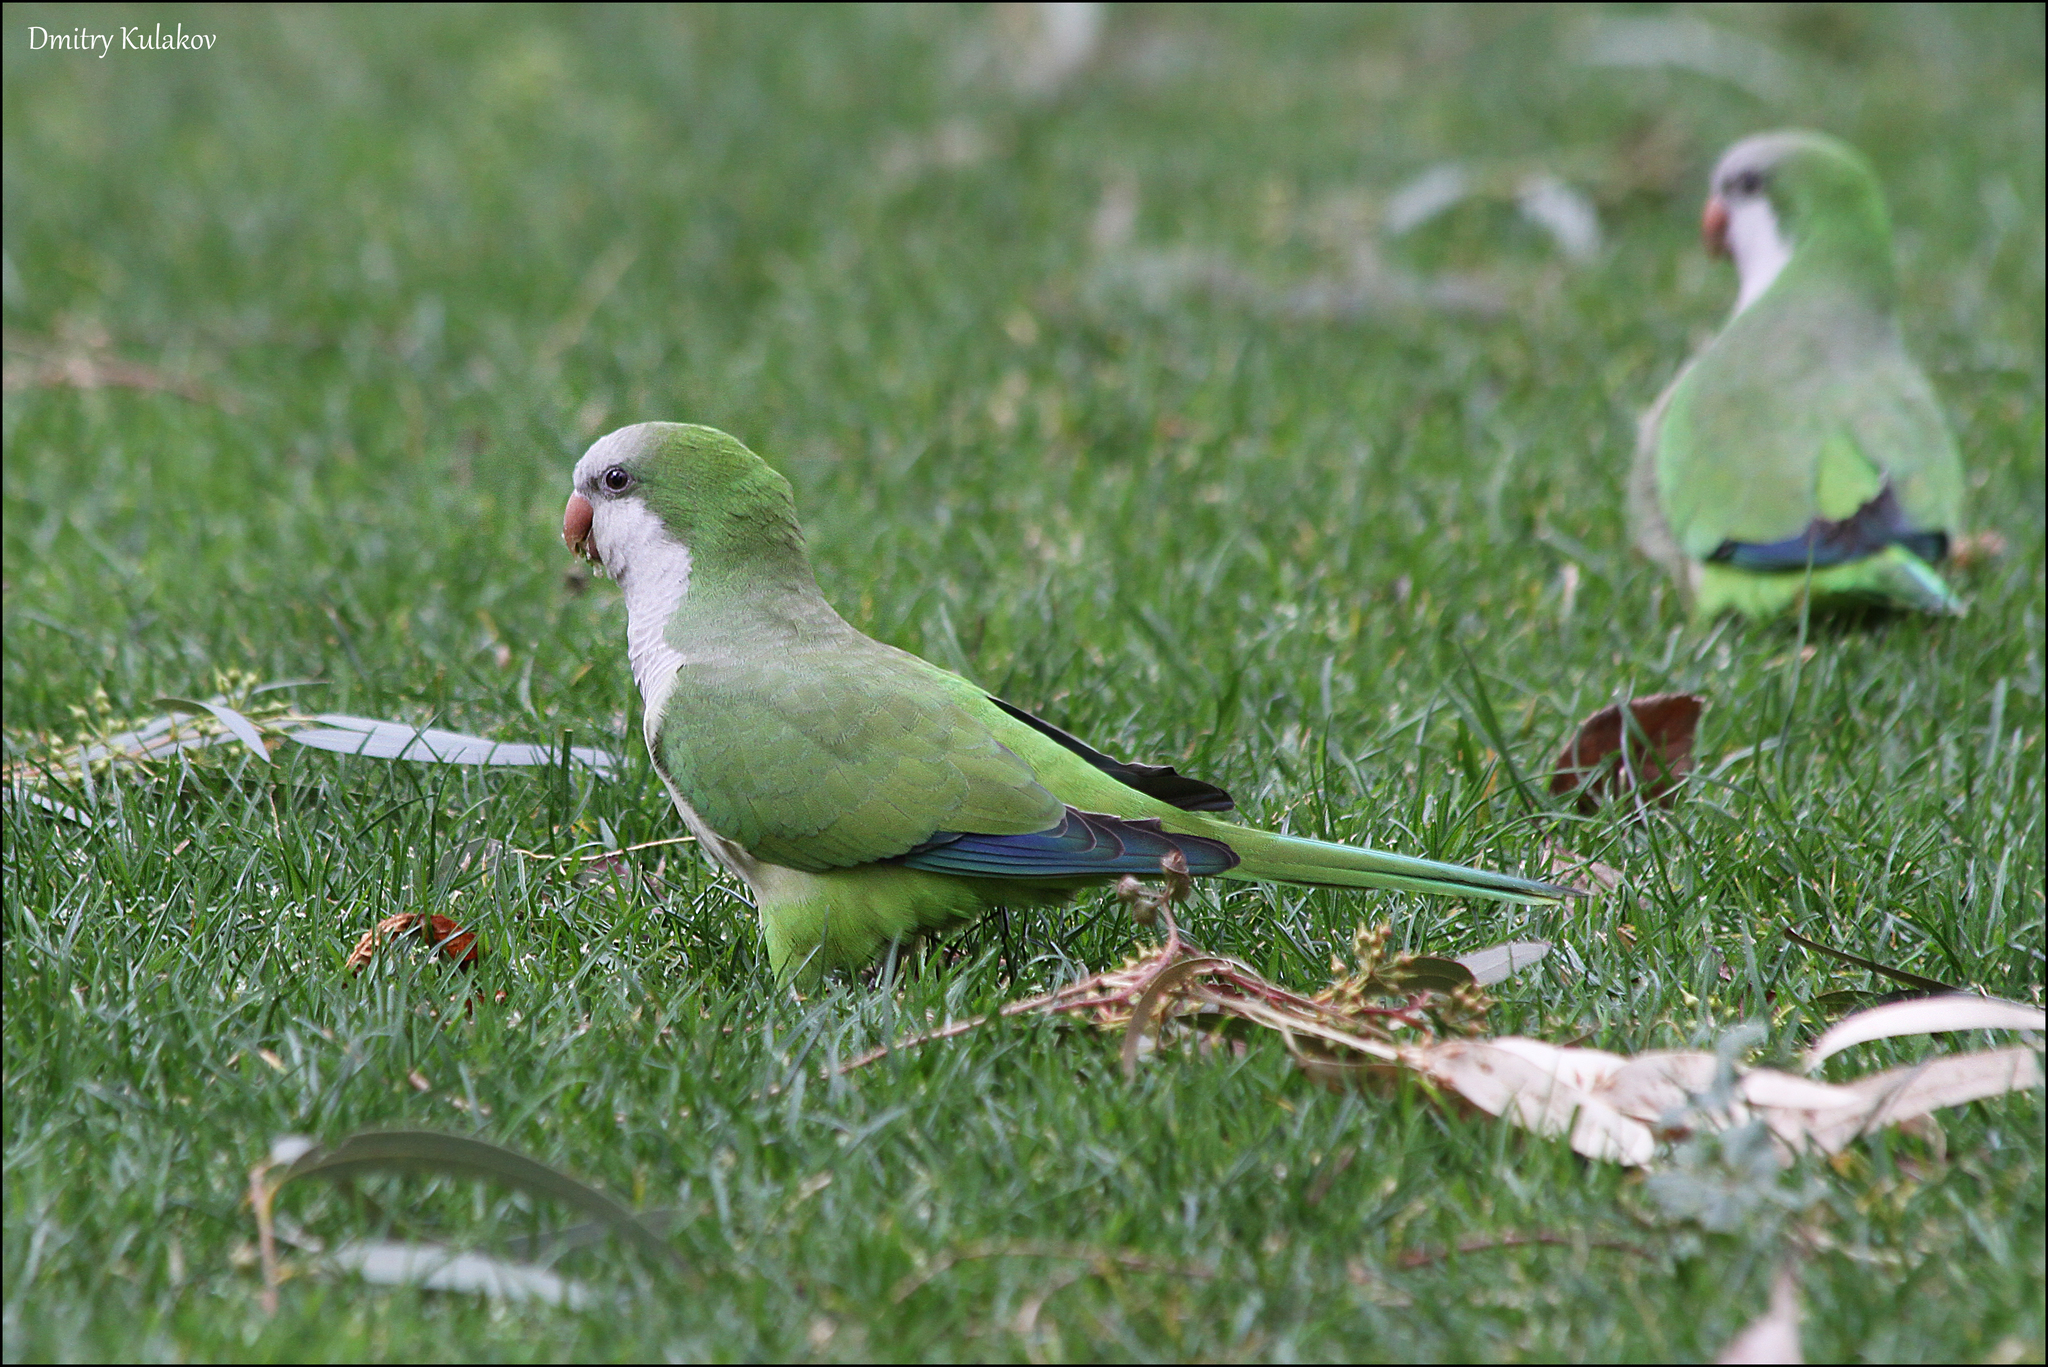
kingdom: Animalia
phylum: Chordata
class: Aves
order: Psittaciformes
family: Psittacidae
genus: Myiopsitta
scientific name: Myiopsitta monachus
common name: Monk parakeet
